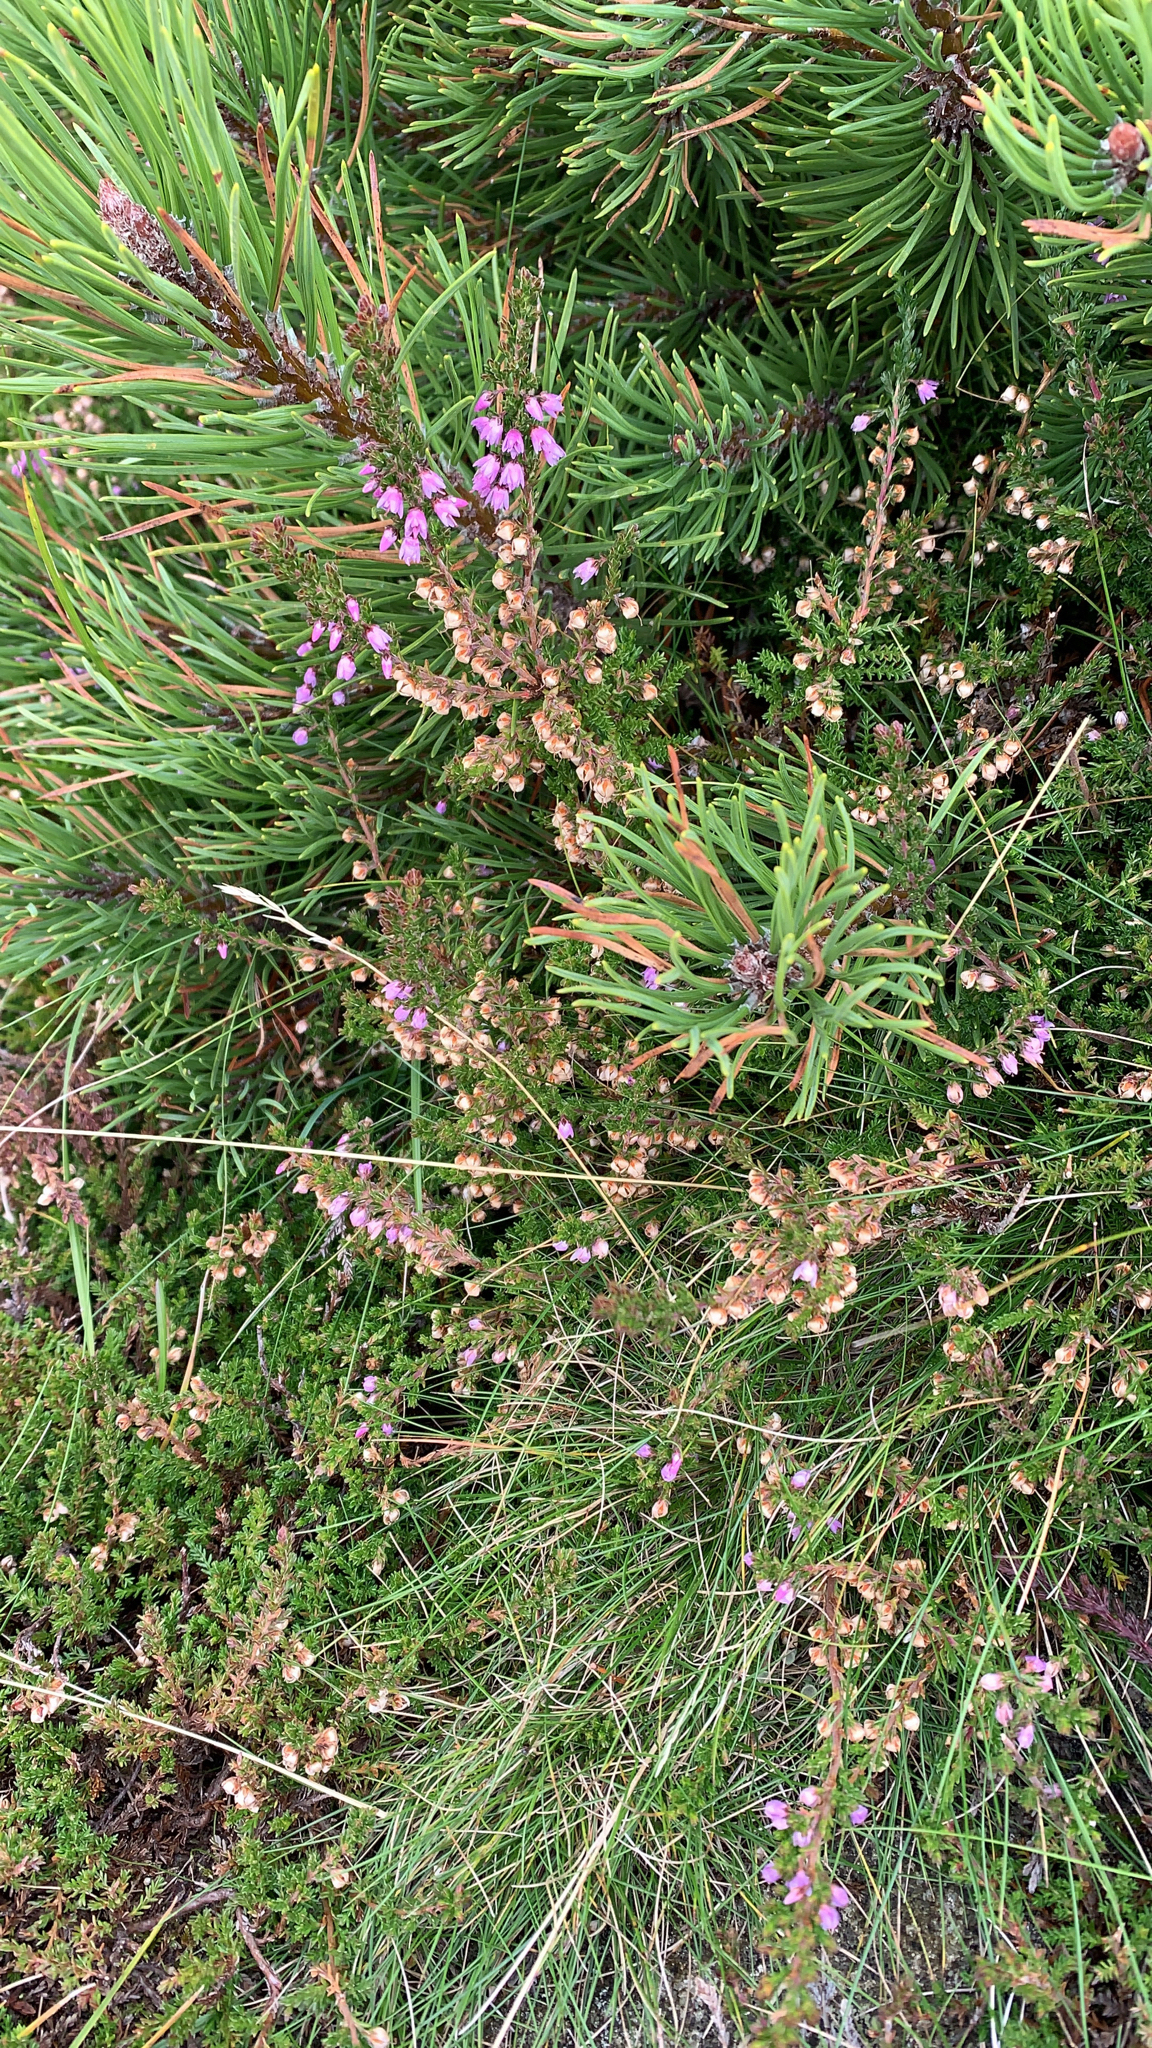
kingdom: Plantae
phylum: Tracheophyta
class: Magnoliopsida
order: Ericales
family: Ericaceae
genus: Calluna
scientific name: Calluna vulgaris
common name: Heather
